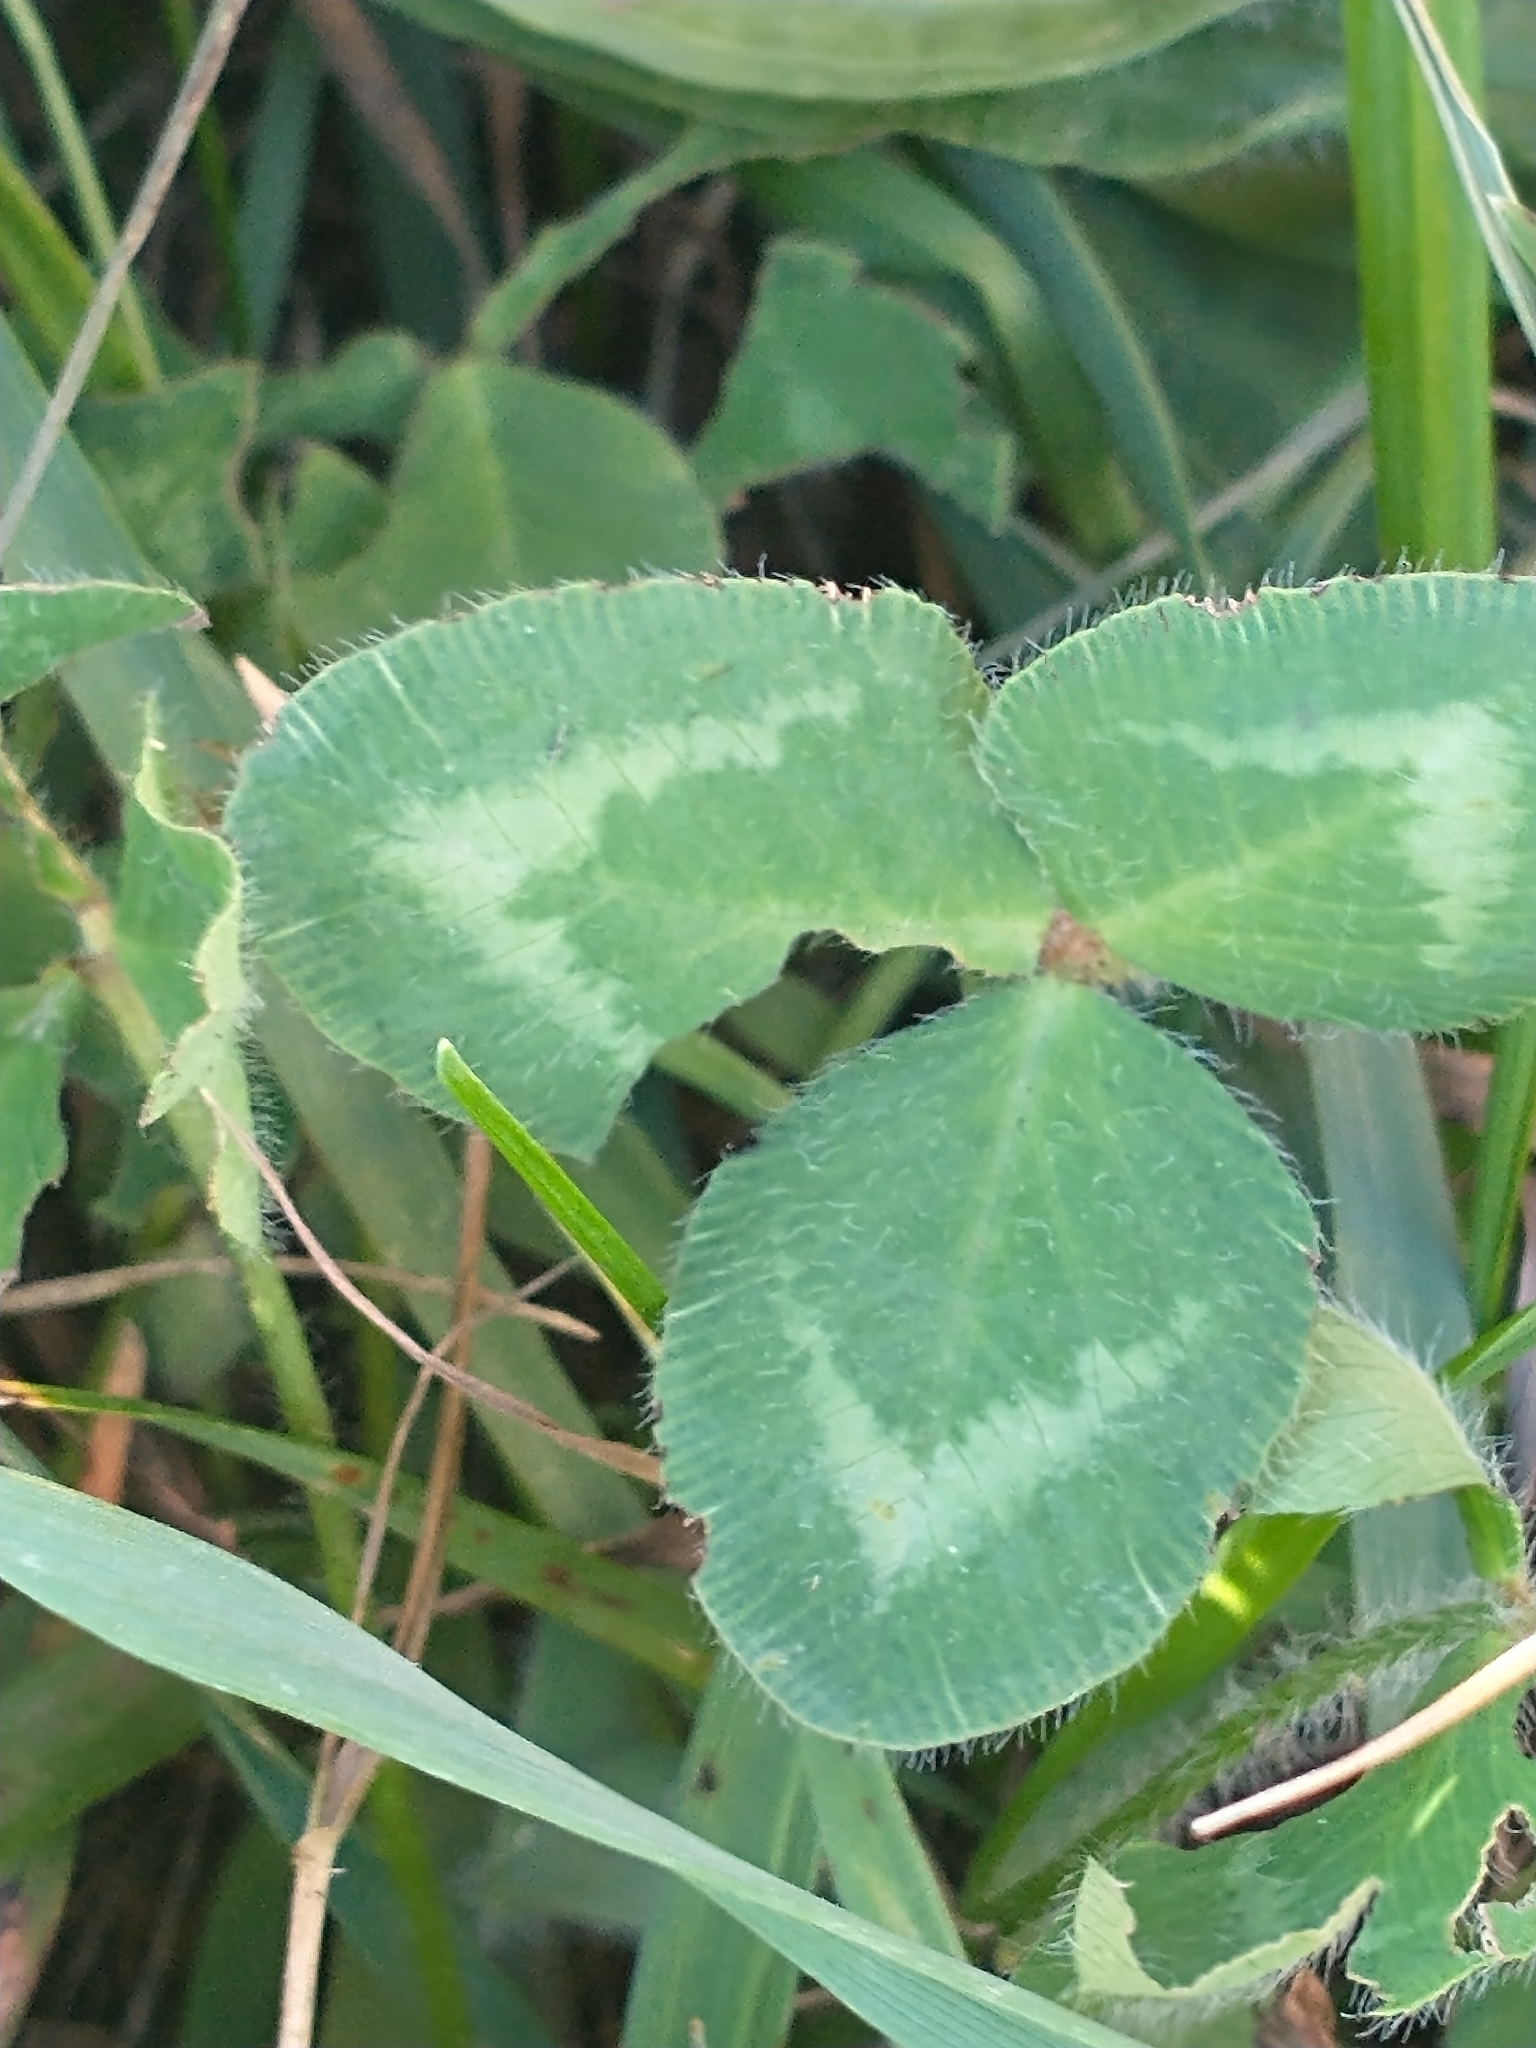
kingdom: Plantae
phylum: Tracheophyta
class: Magnoliopsida
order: Fabales
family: Fabaceae
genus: Trifolium
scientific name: Trifolium pratense
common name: Red clover
